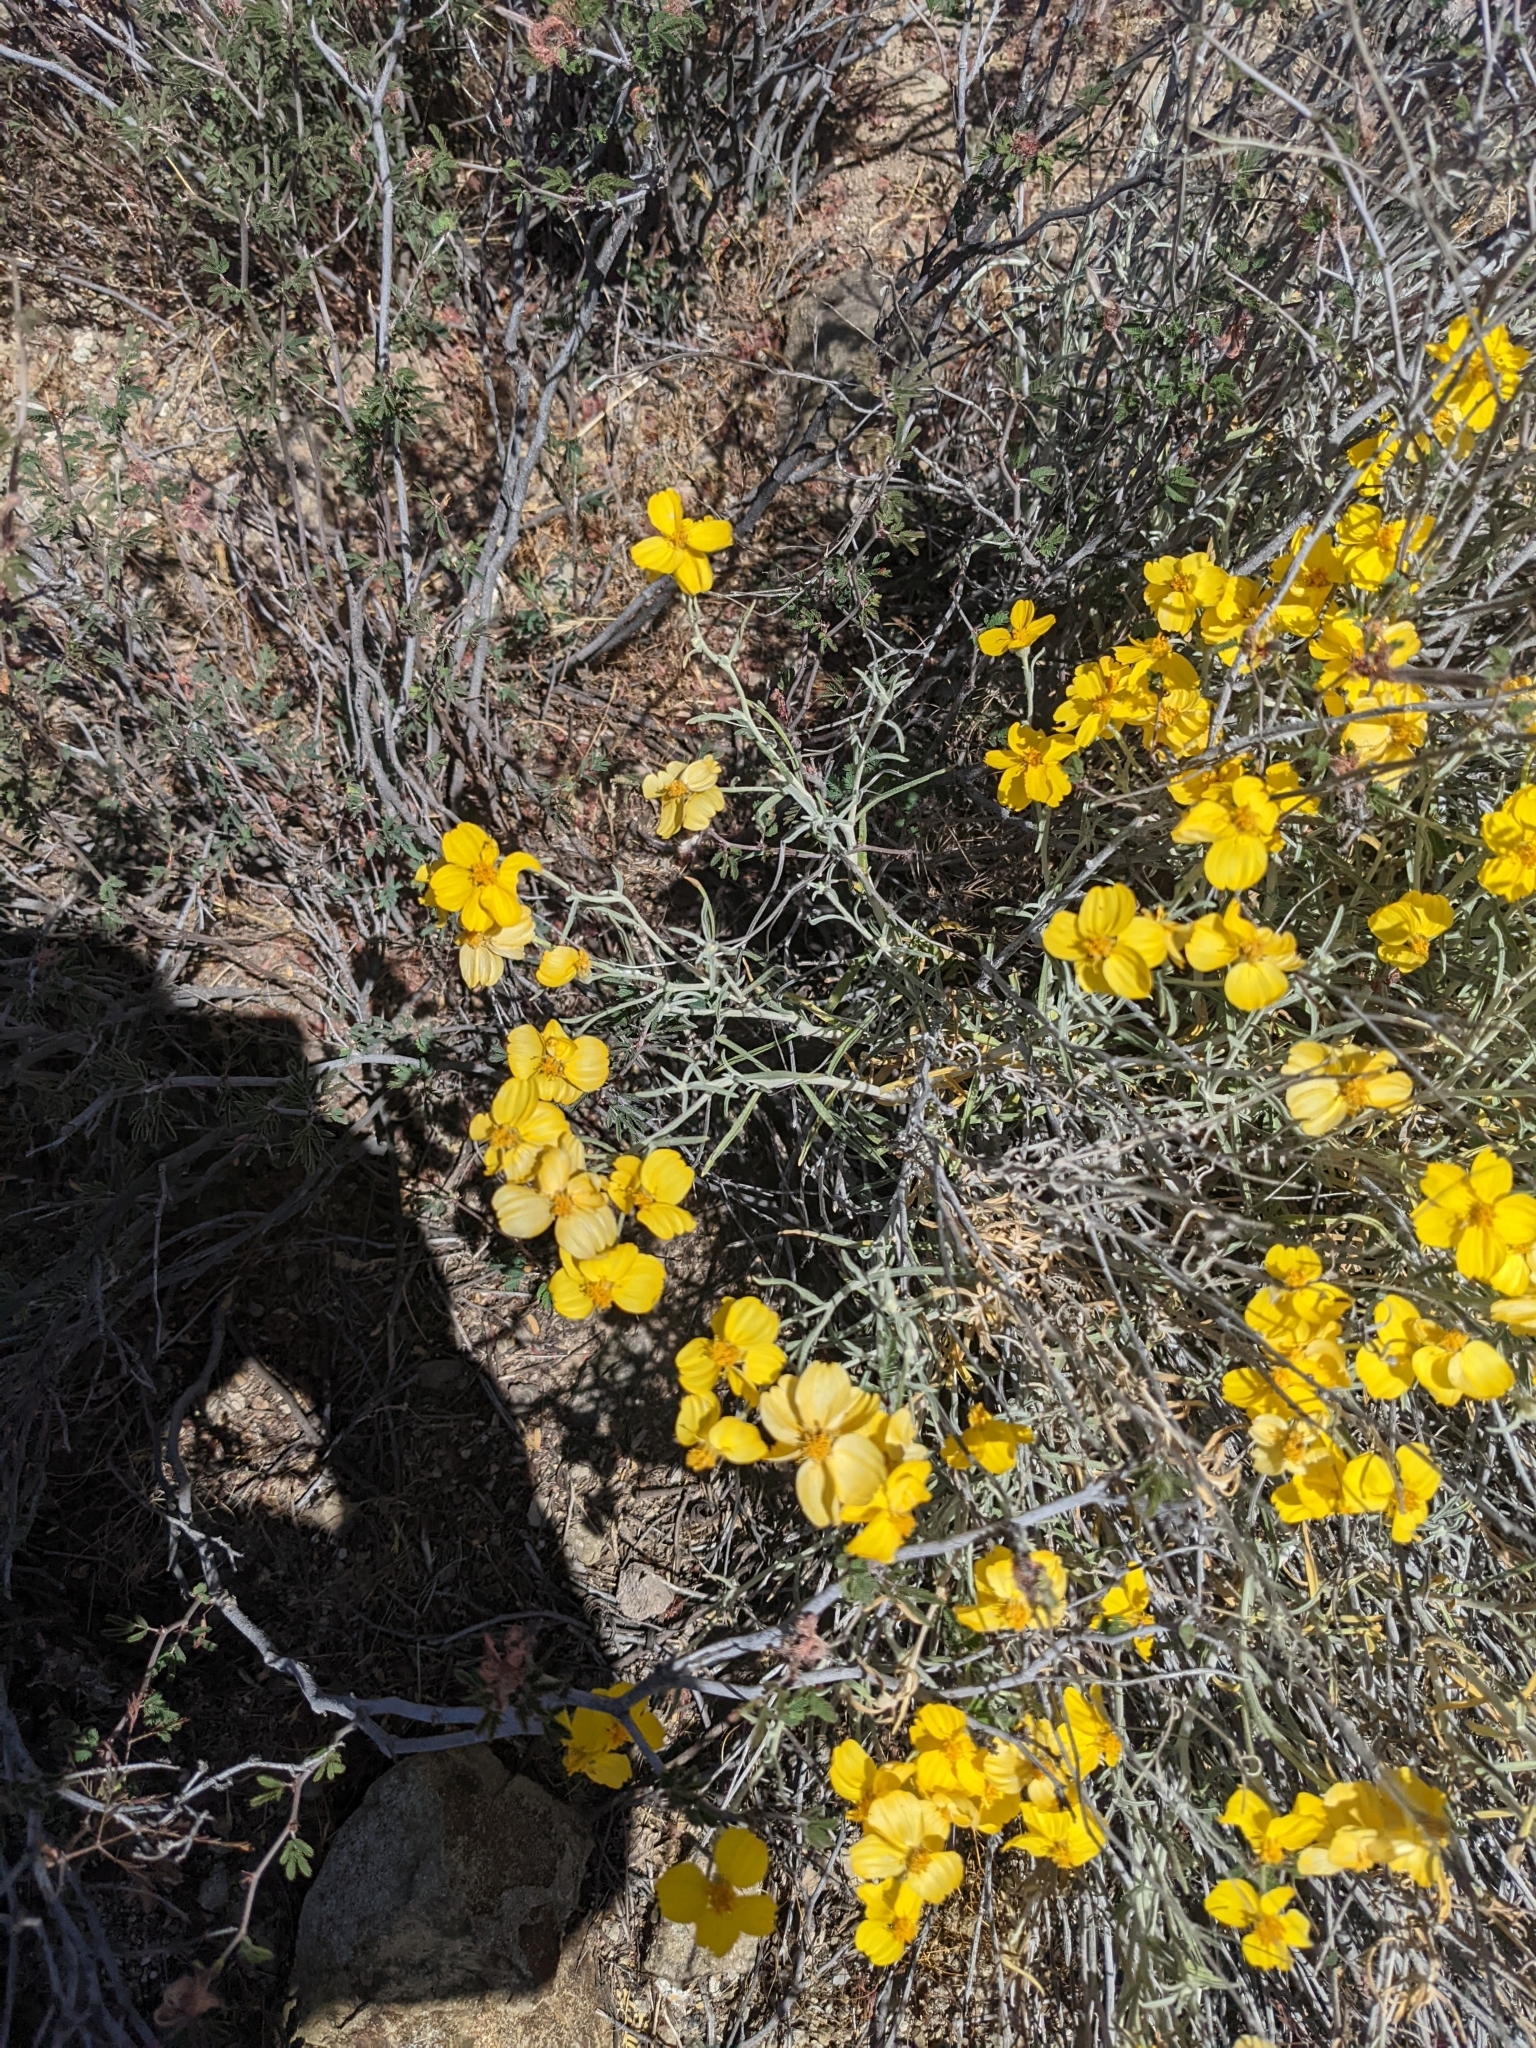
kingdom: Plantae
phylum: Tracheophyta
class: Magnoliopsida
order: Asterales
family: Asteraceae
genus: Psilostrophe
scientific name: Psilostrophe cooperi
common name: White-stem paper-flower
